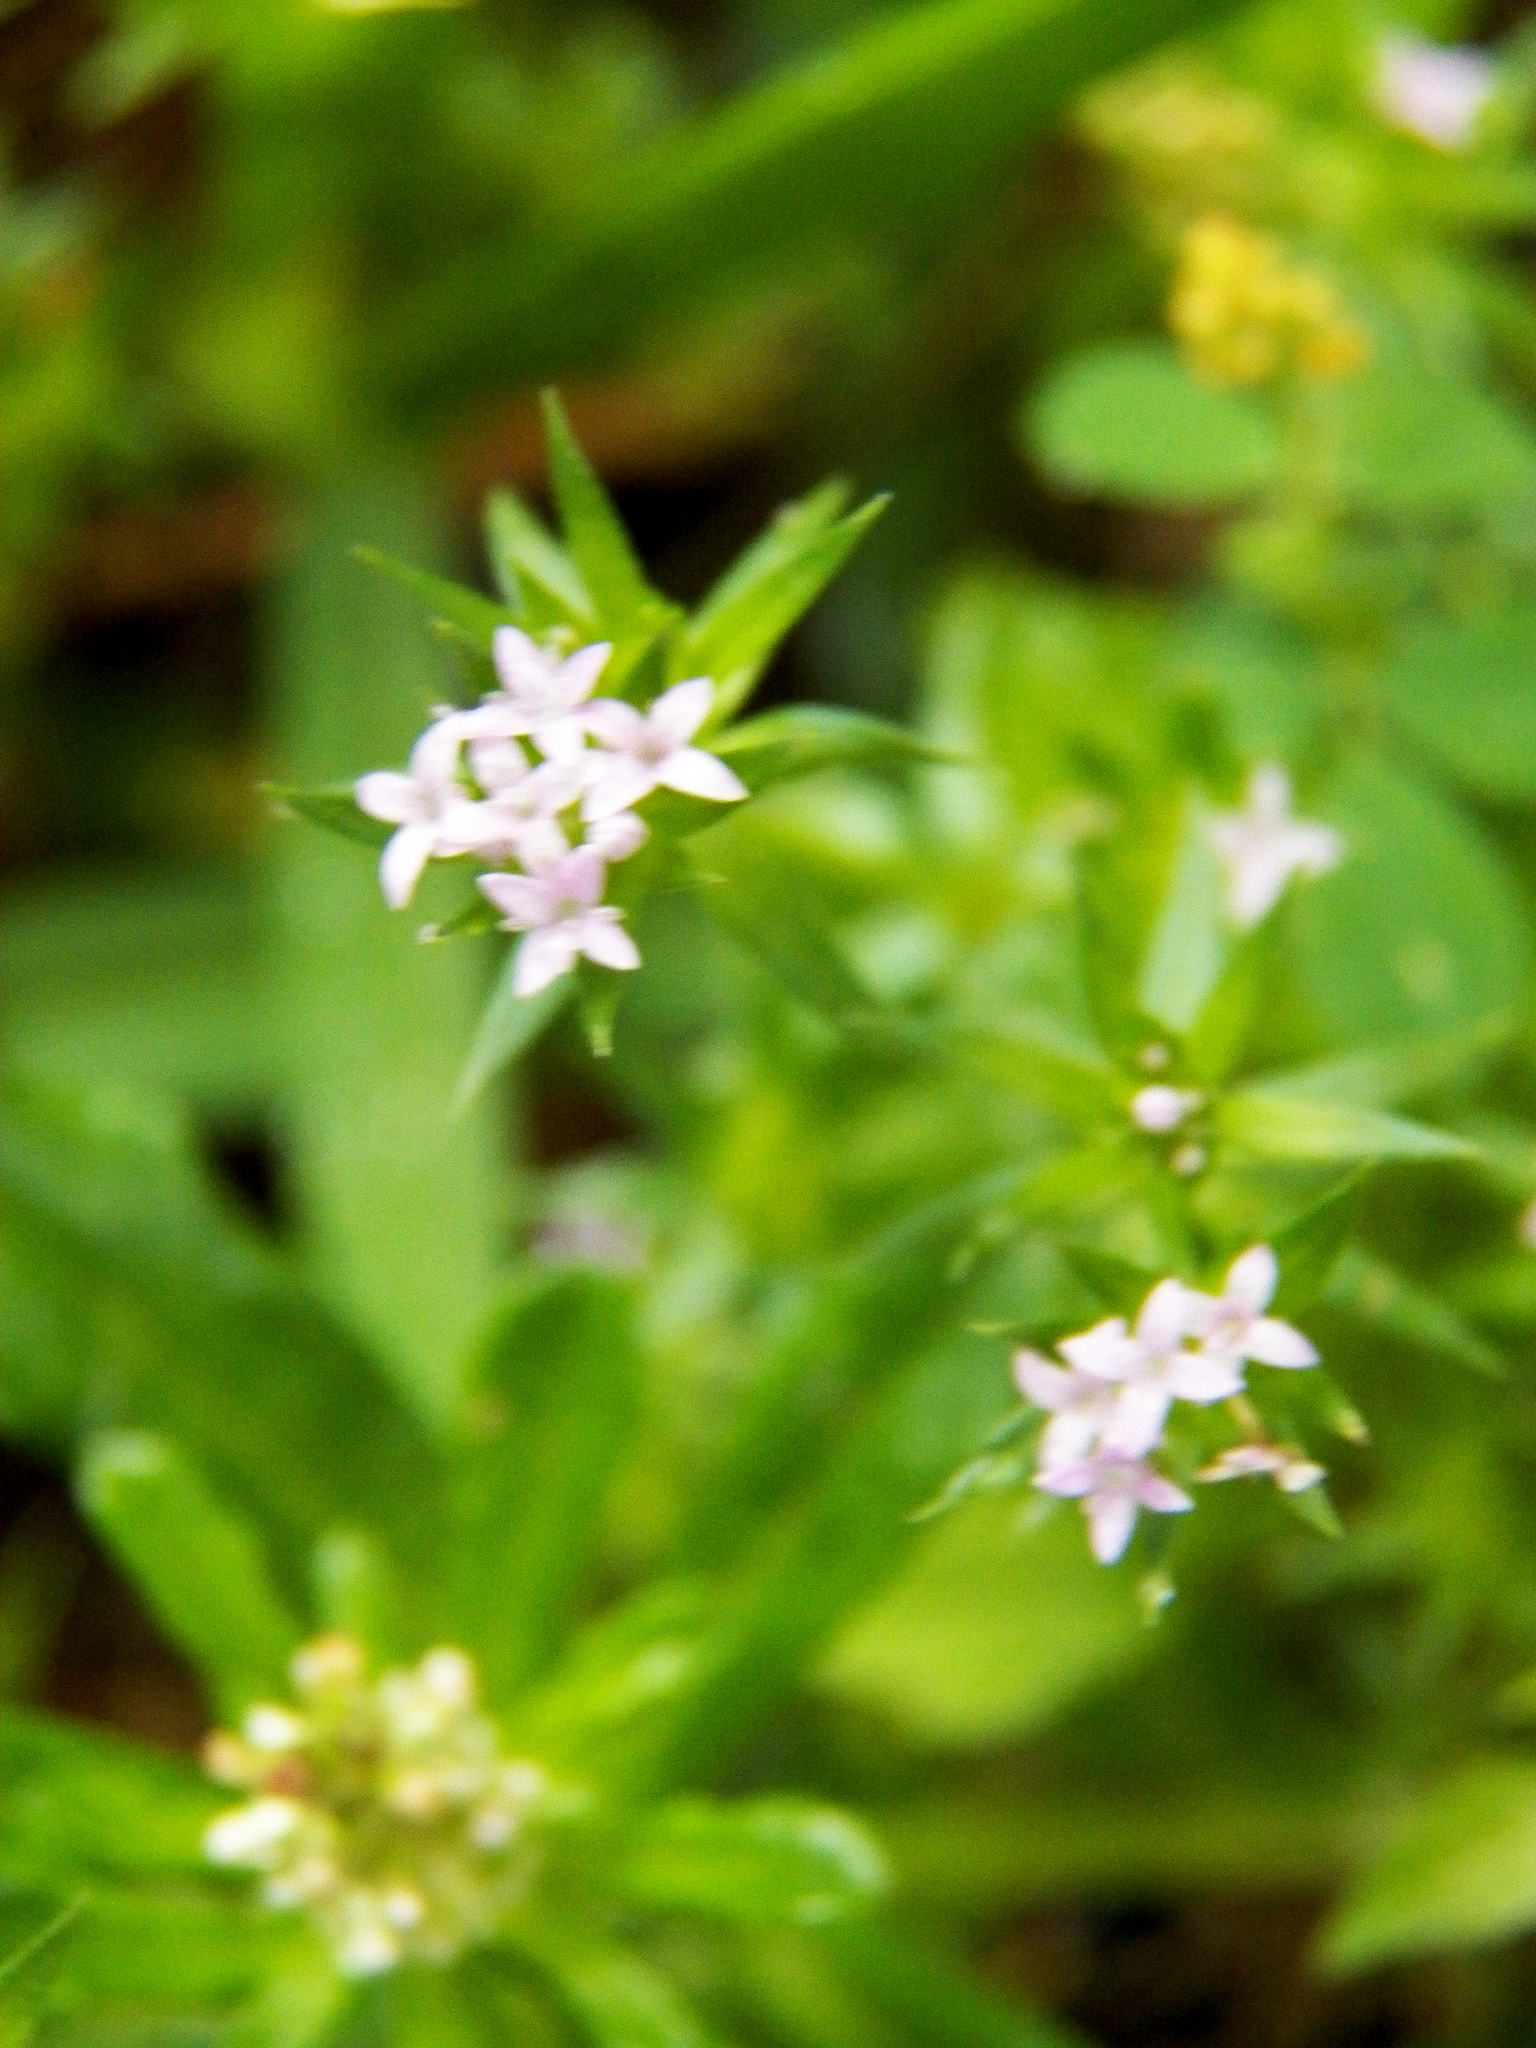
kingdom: Plantae
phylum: Tracheophyta
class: Magnoliopsida
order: Gentianales
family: Rubiaceae
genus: Sherardia
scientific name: Sherardia arvensis
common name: Field madder
